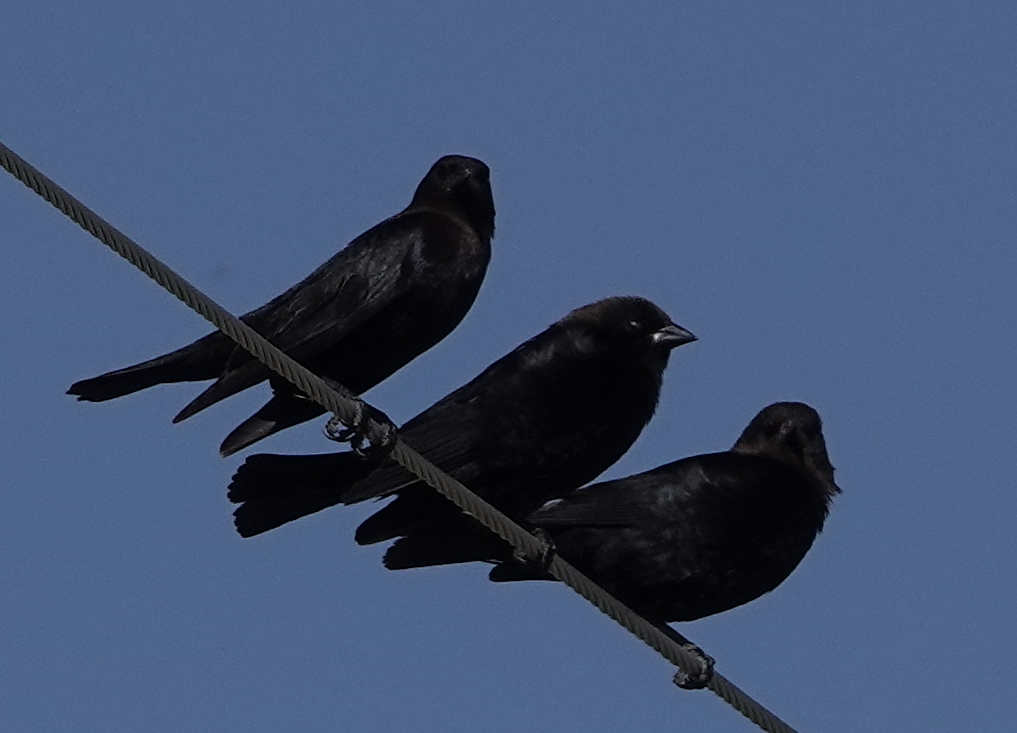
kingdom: Animalia
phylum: Chordata
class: Aves
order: Passeriformes
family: Icteridae
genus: Molothrus
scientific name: Molothrus ater
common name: Brown-headed cowbird
